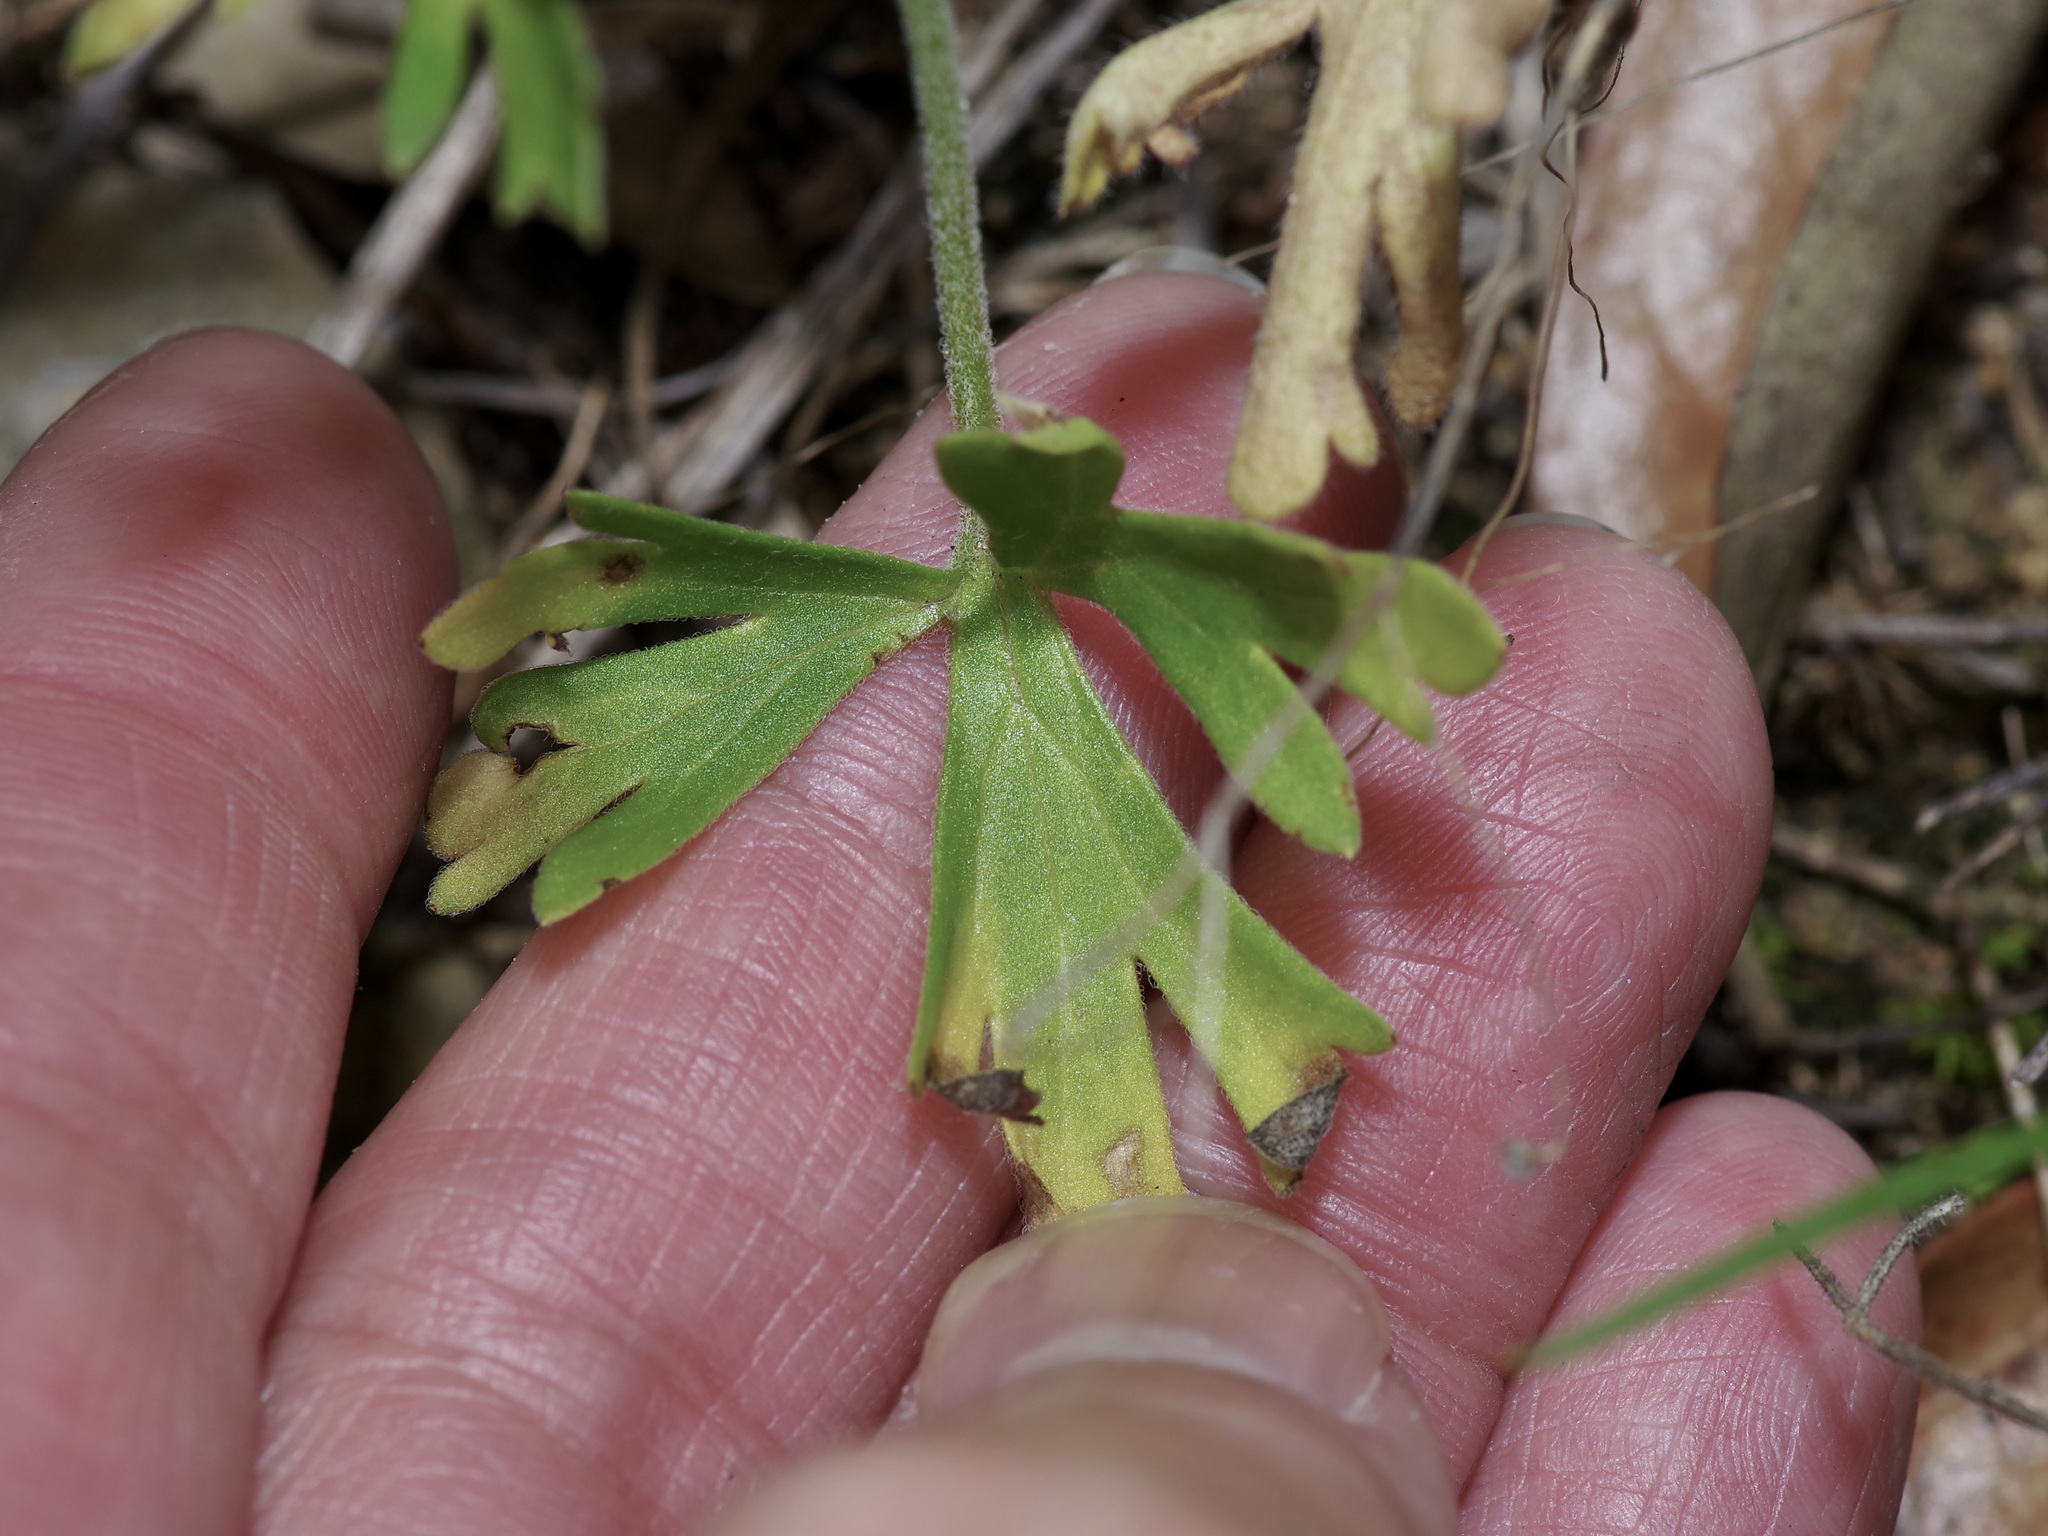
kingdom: Plantae
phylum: Tracheophyta
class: Magnoliopsida
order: Ranunculales
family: Ranunculaceae
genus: Delphinium
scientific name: Delphinium carolinianum
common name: Carolina larkspur
